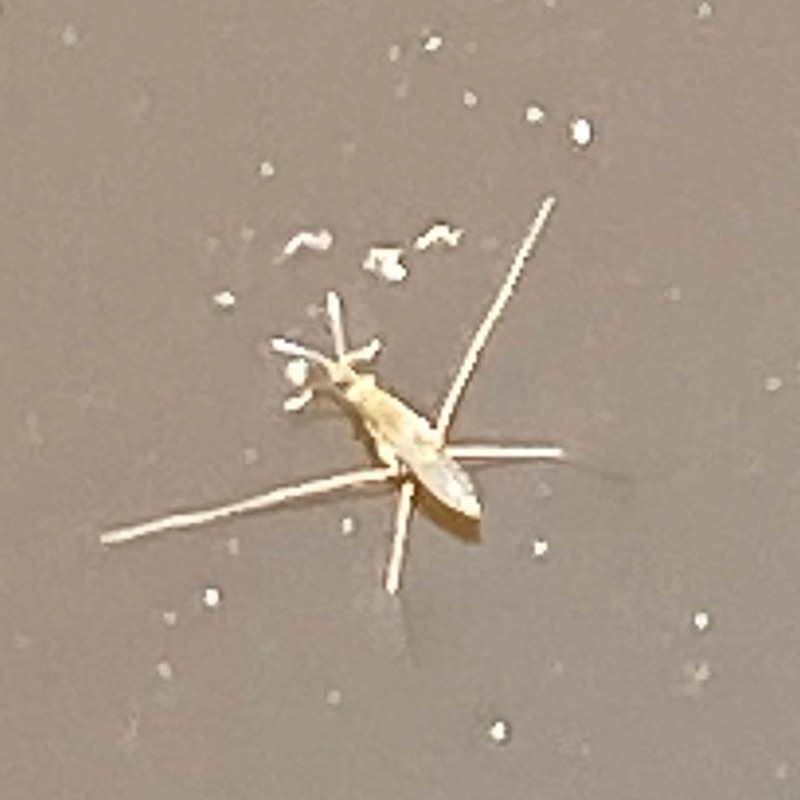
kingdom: Animalia
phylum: Arthropoda
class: Insecta
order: Hemiptera
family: Gerridae
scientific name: Gerridae
